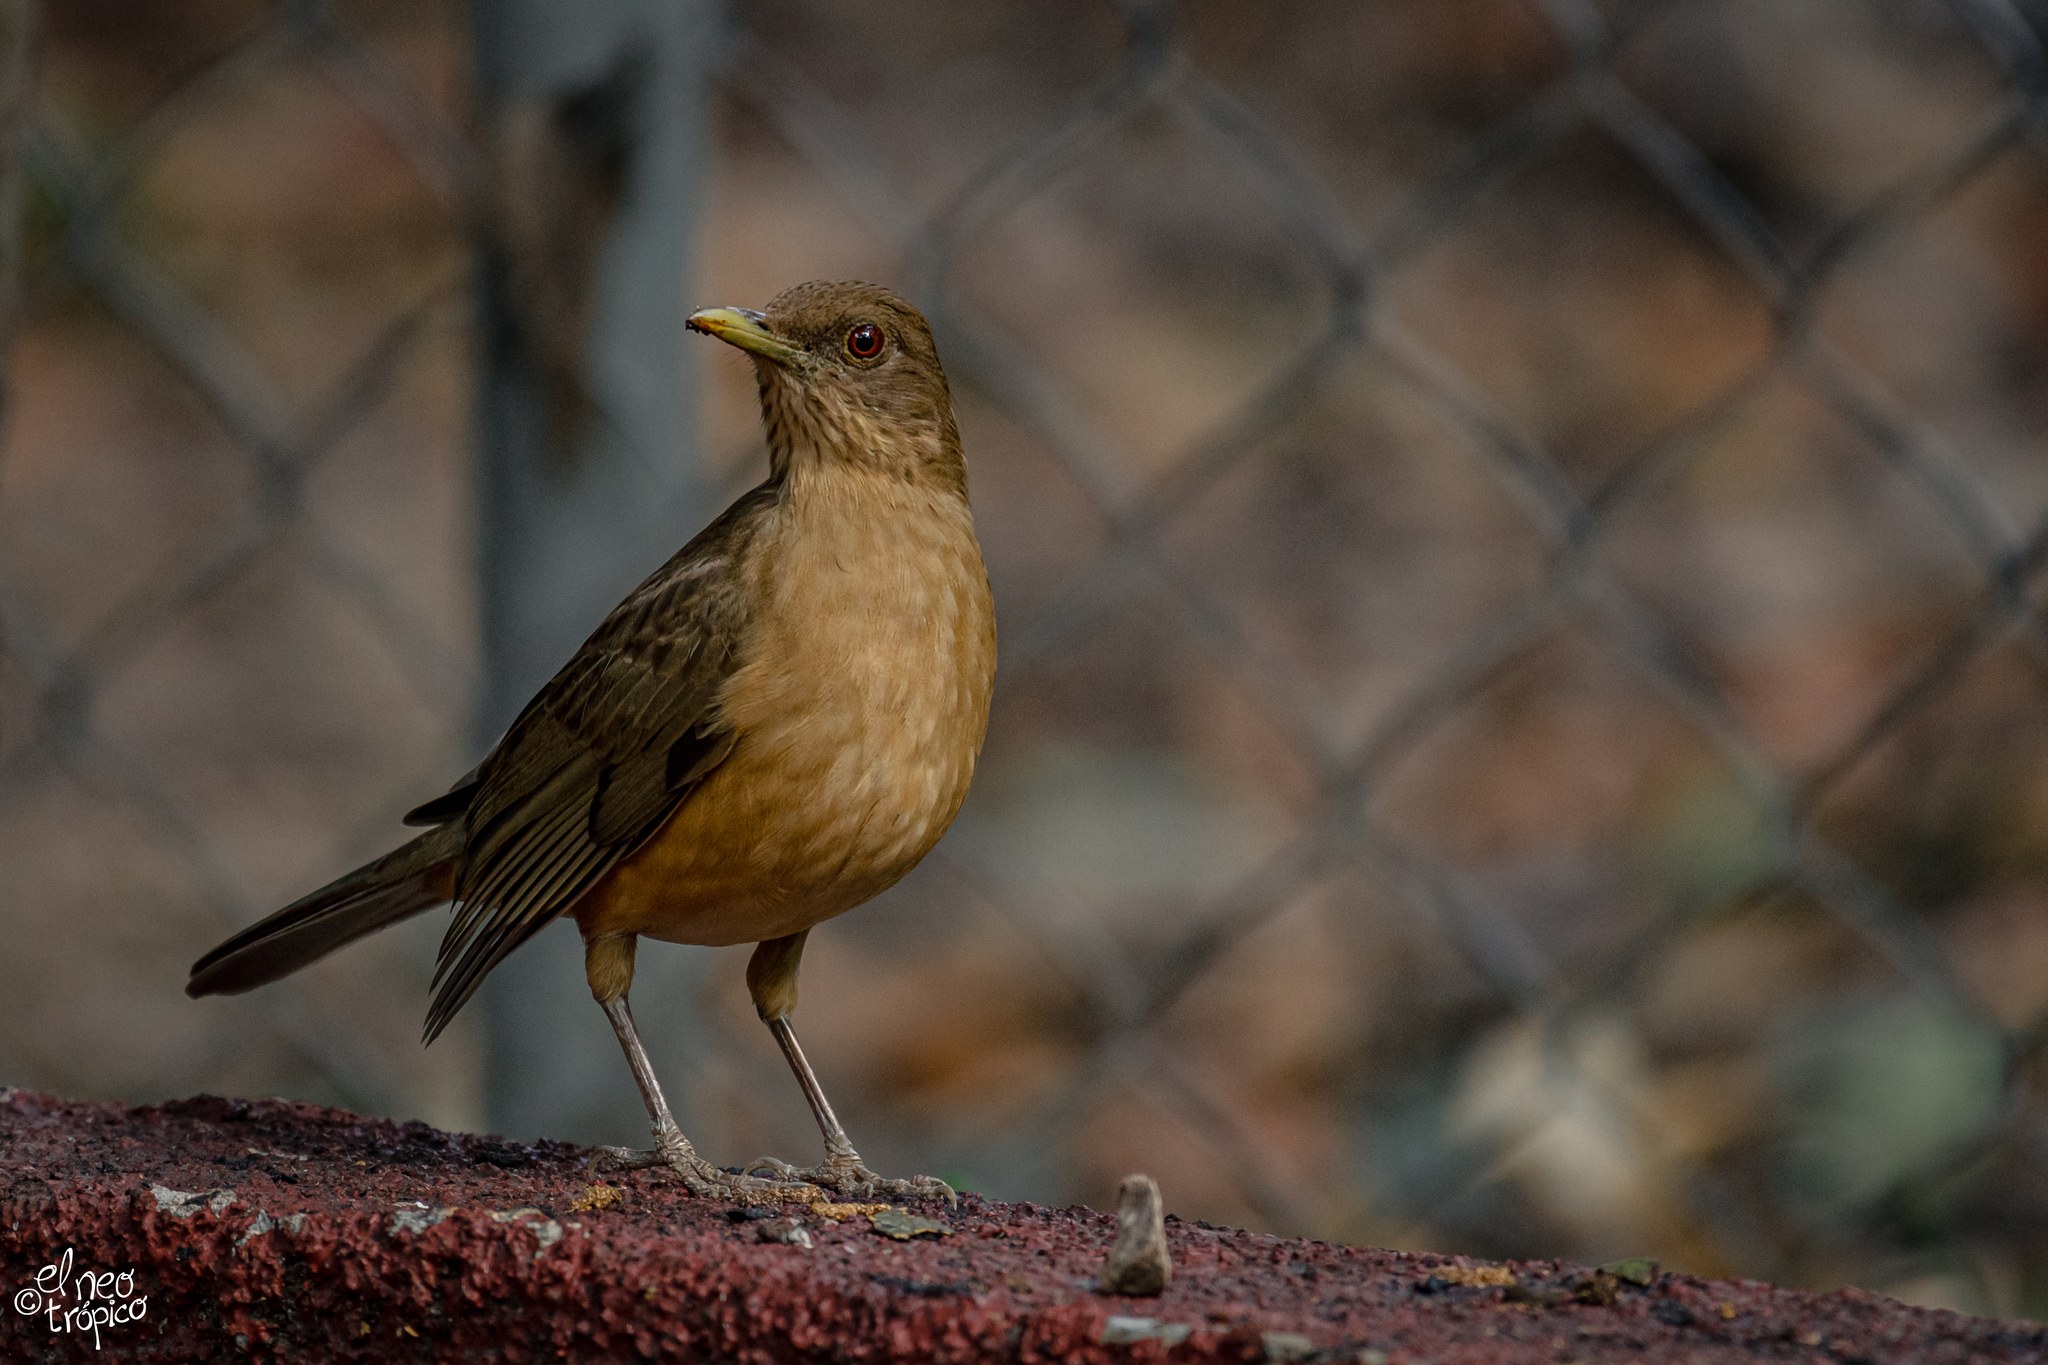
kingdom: Animalia
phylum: Chordata
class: Aves
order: Passeriformes
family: Turdidae
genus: Turdus
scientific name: Turdus grayi
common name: Clay-colored thrush
